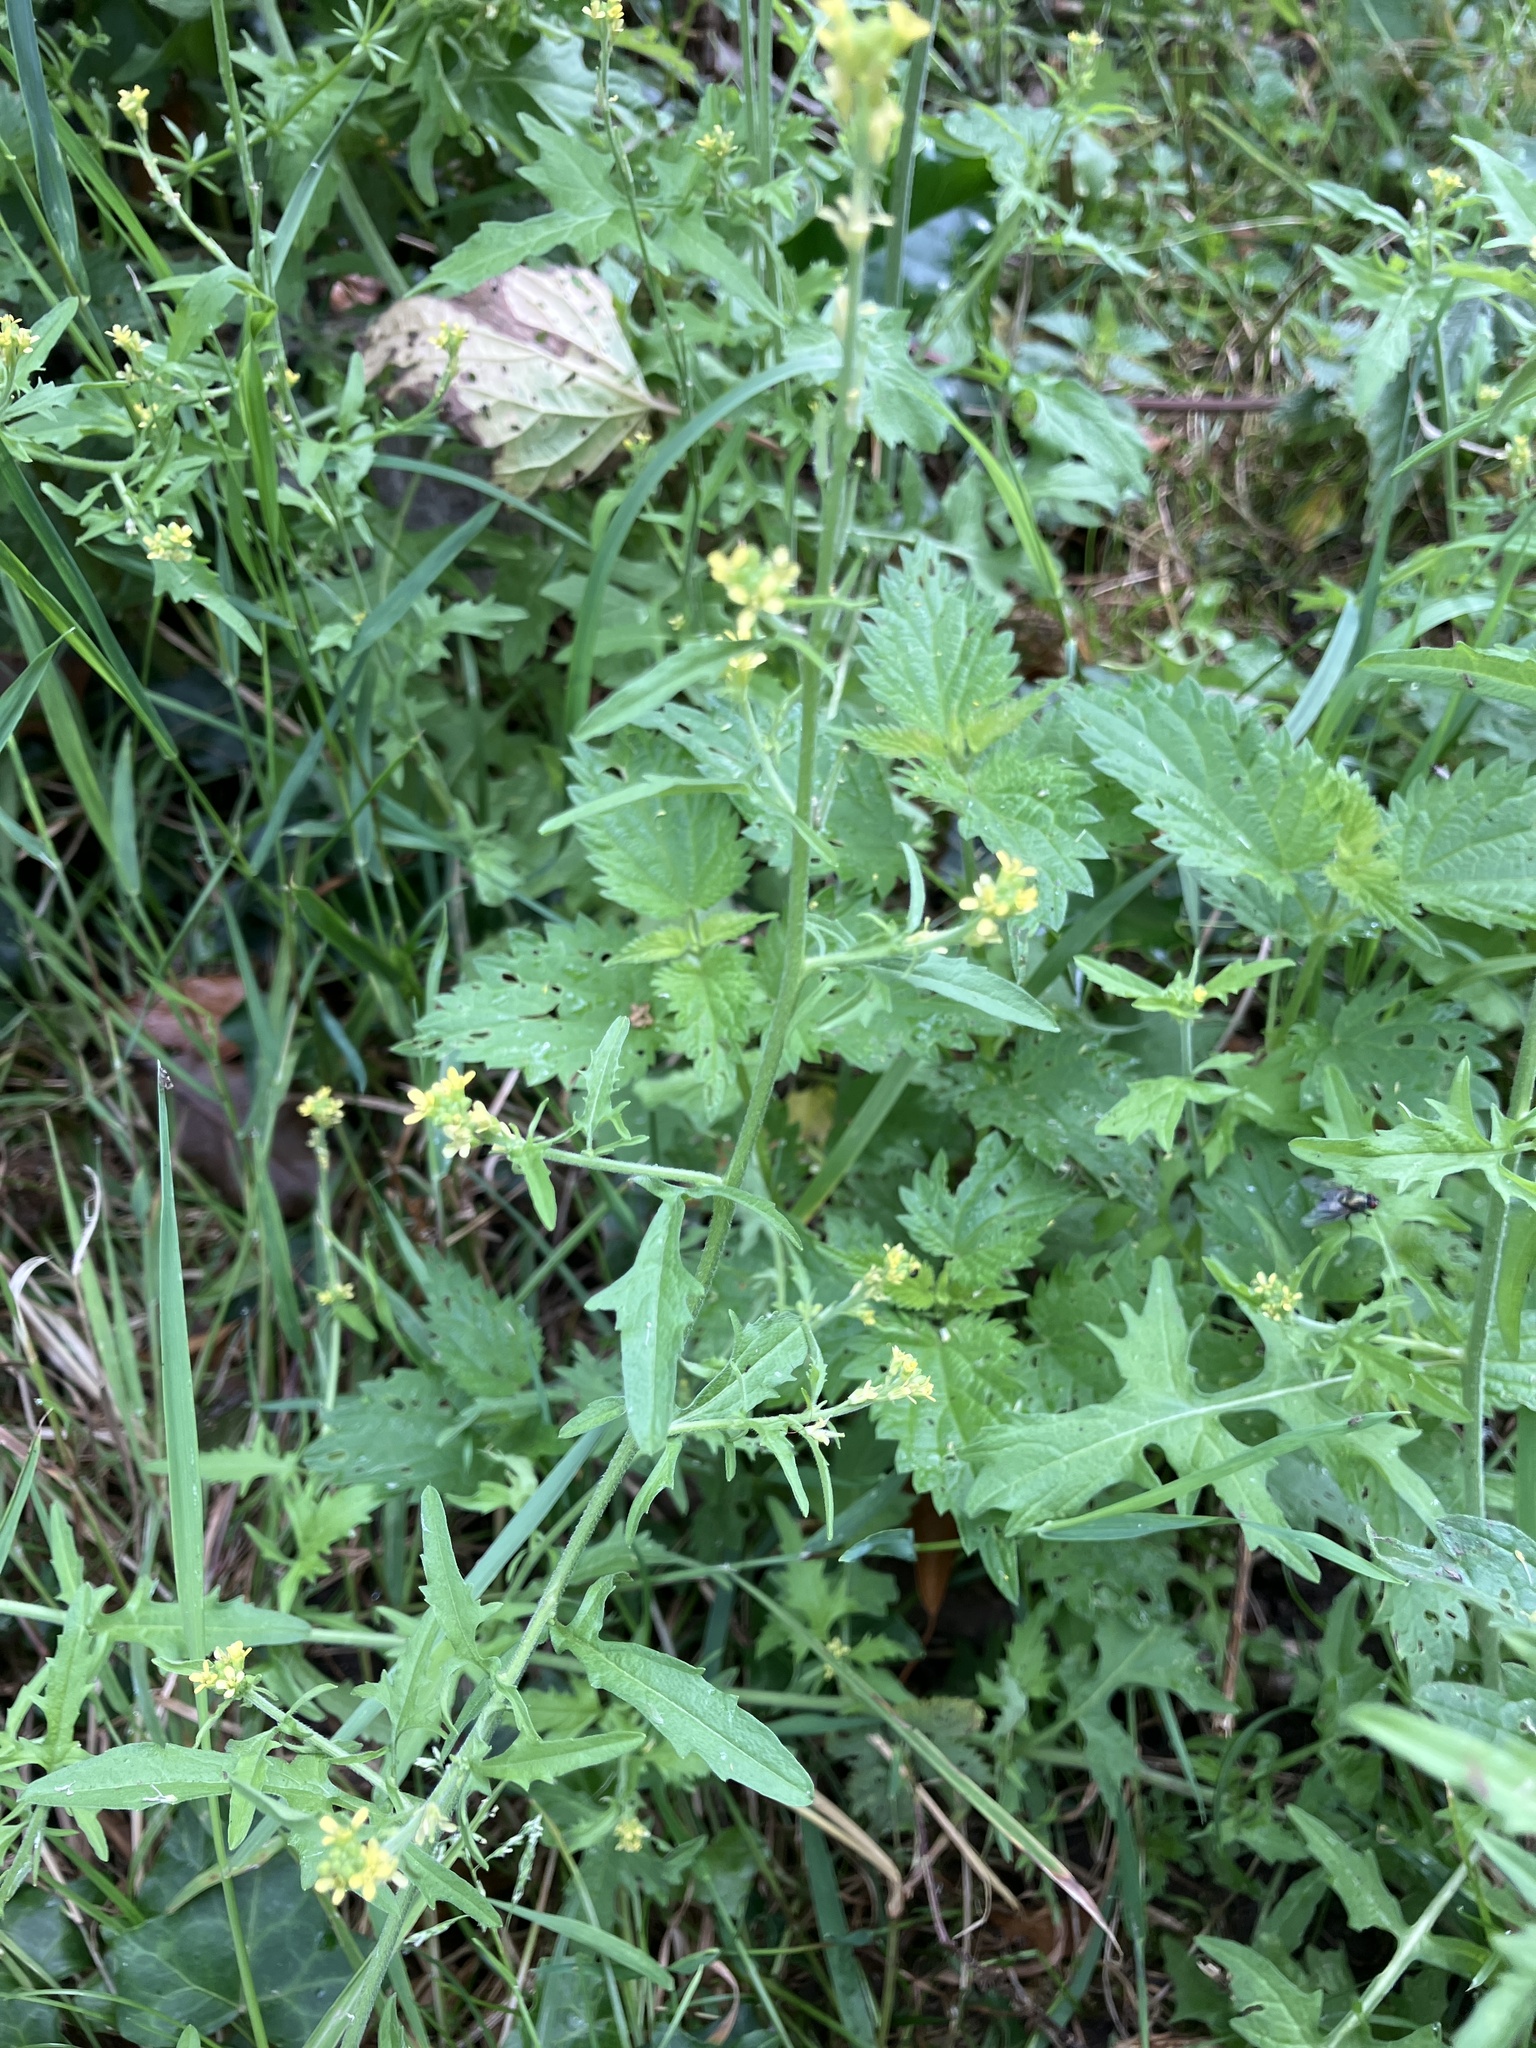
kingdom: Plantae
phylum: Tracheophyta
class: Magnoliopsida
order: Brassicales
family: Brassicaceae
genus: Sisymbrium
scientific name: Sisymbrium officinale
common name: Hedge mustard
